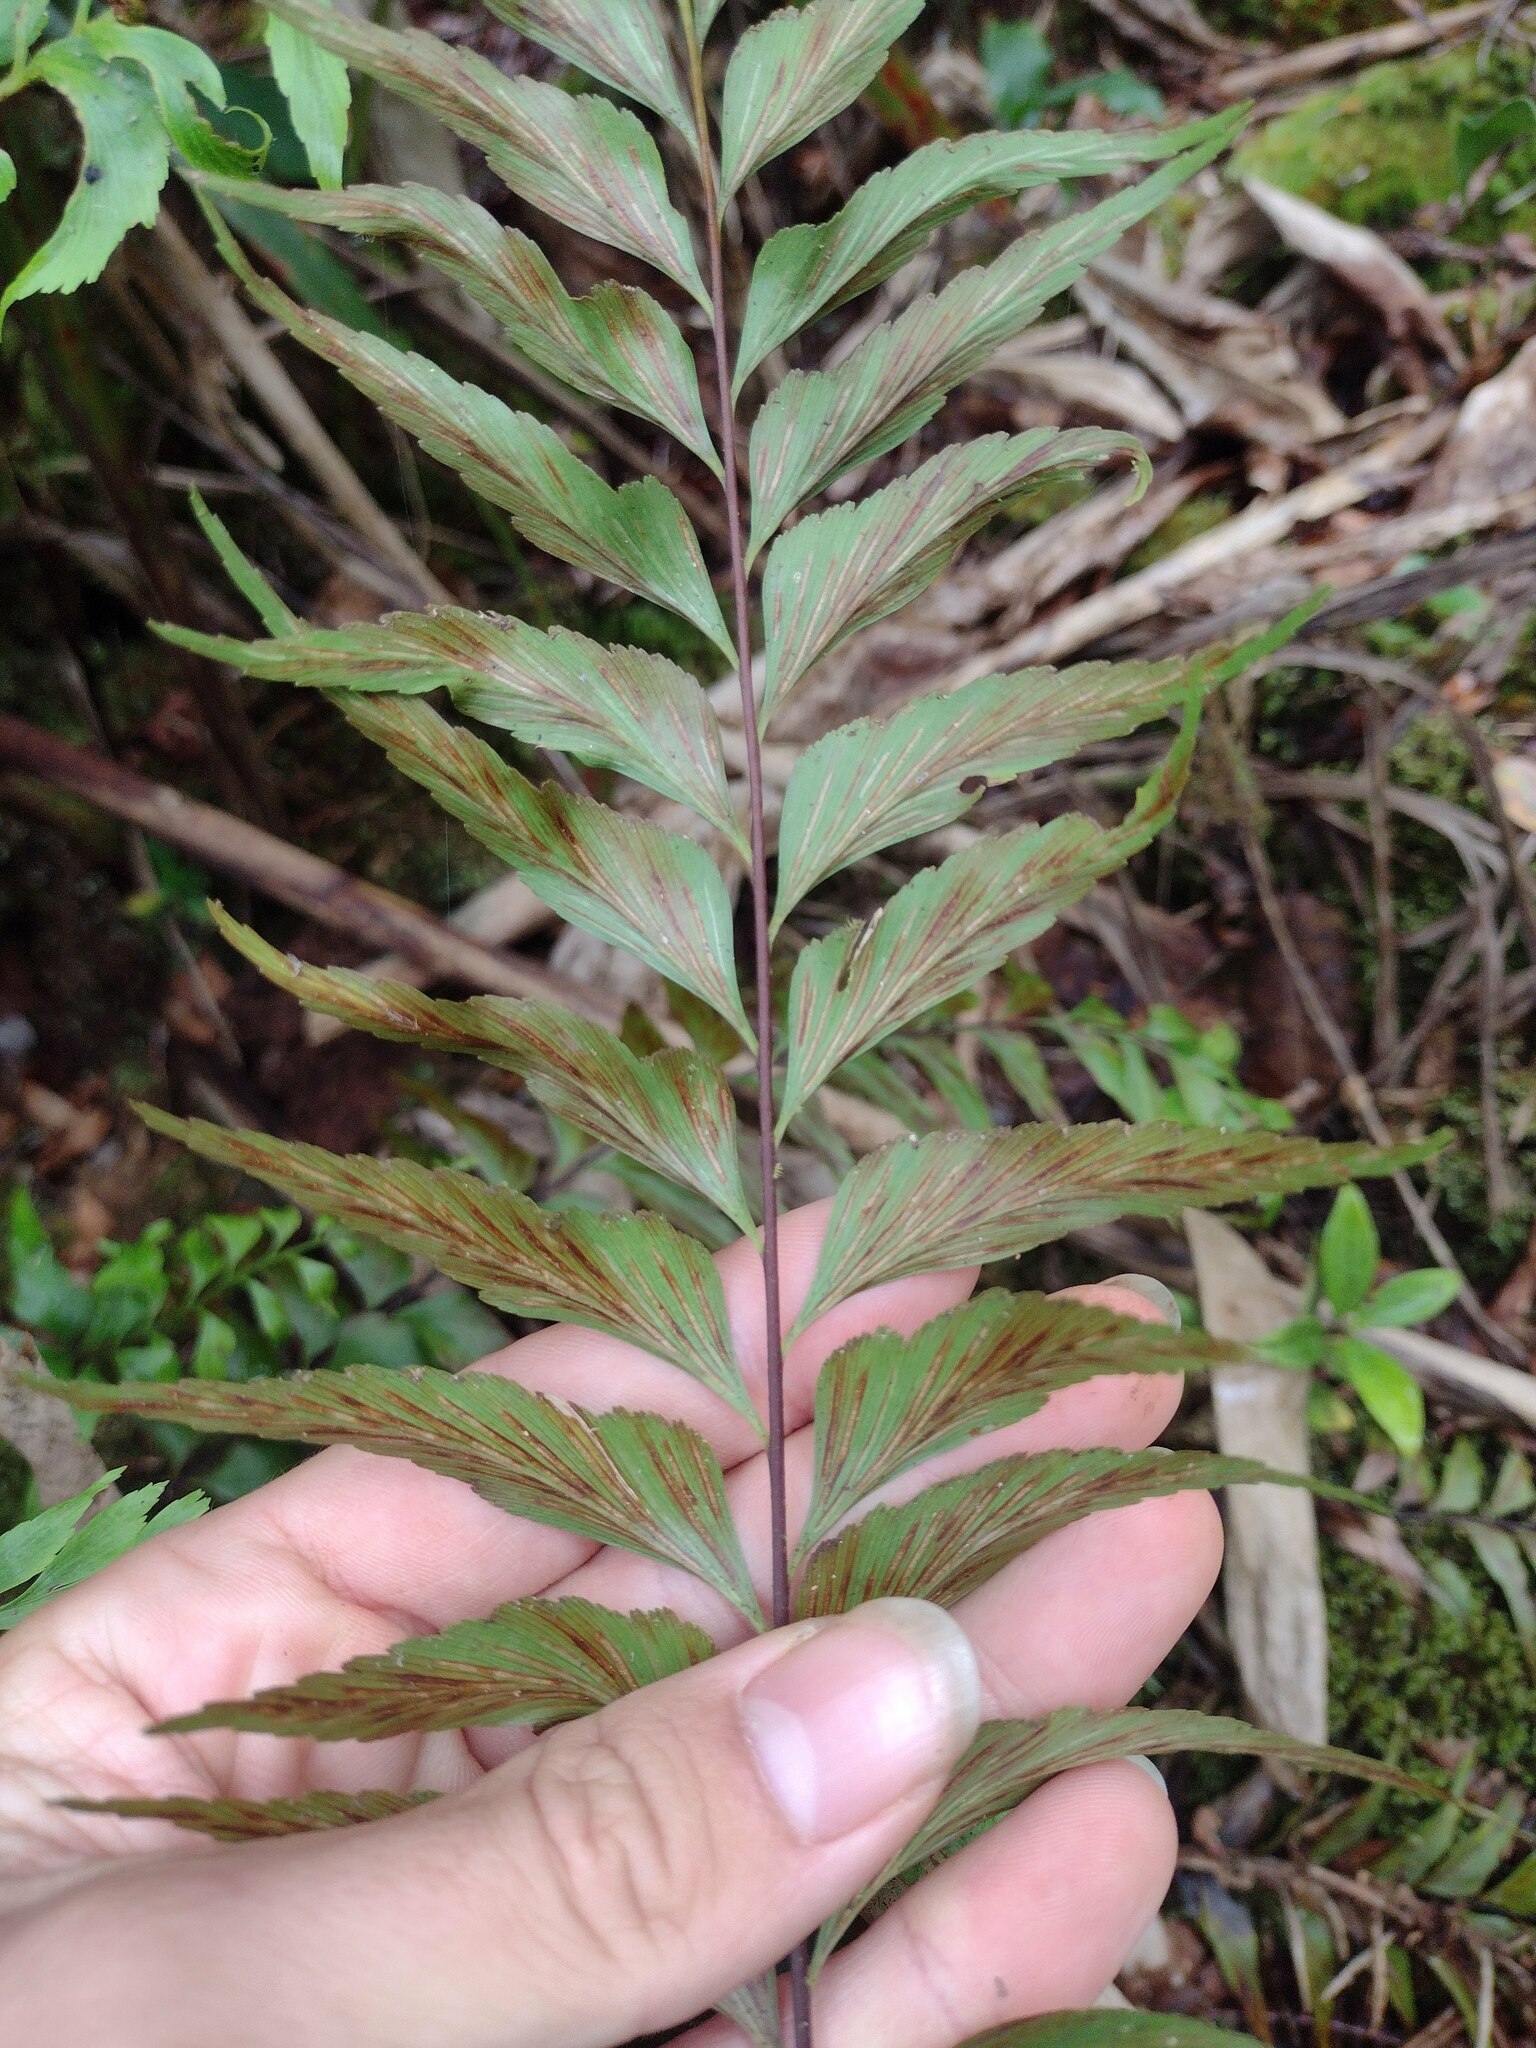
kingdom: Plantae
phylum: Tracheophyta
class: Polypodiopsida
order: Polypodiales
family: Aspleniaceae
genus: Asplenium
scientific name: Asplenium polyodon
